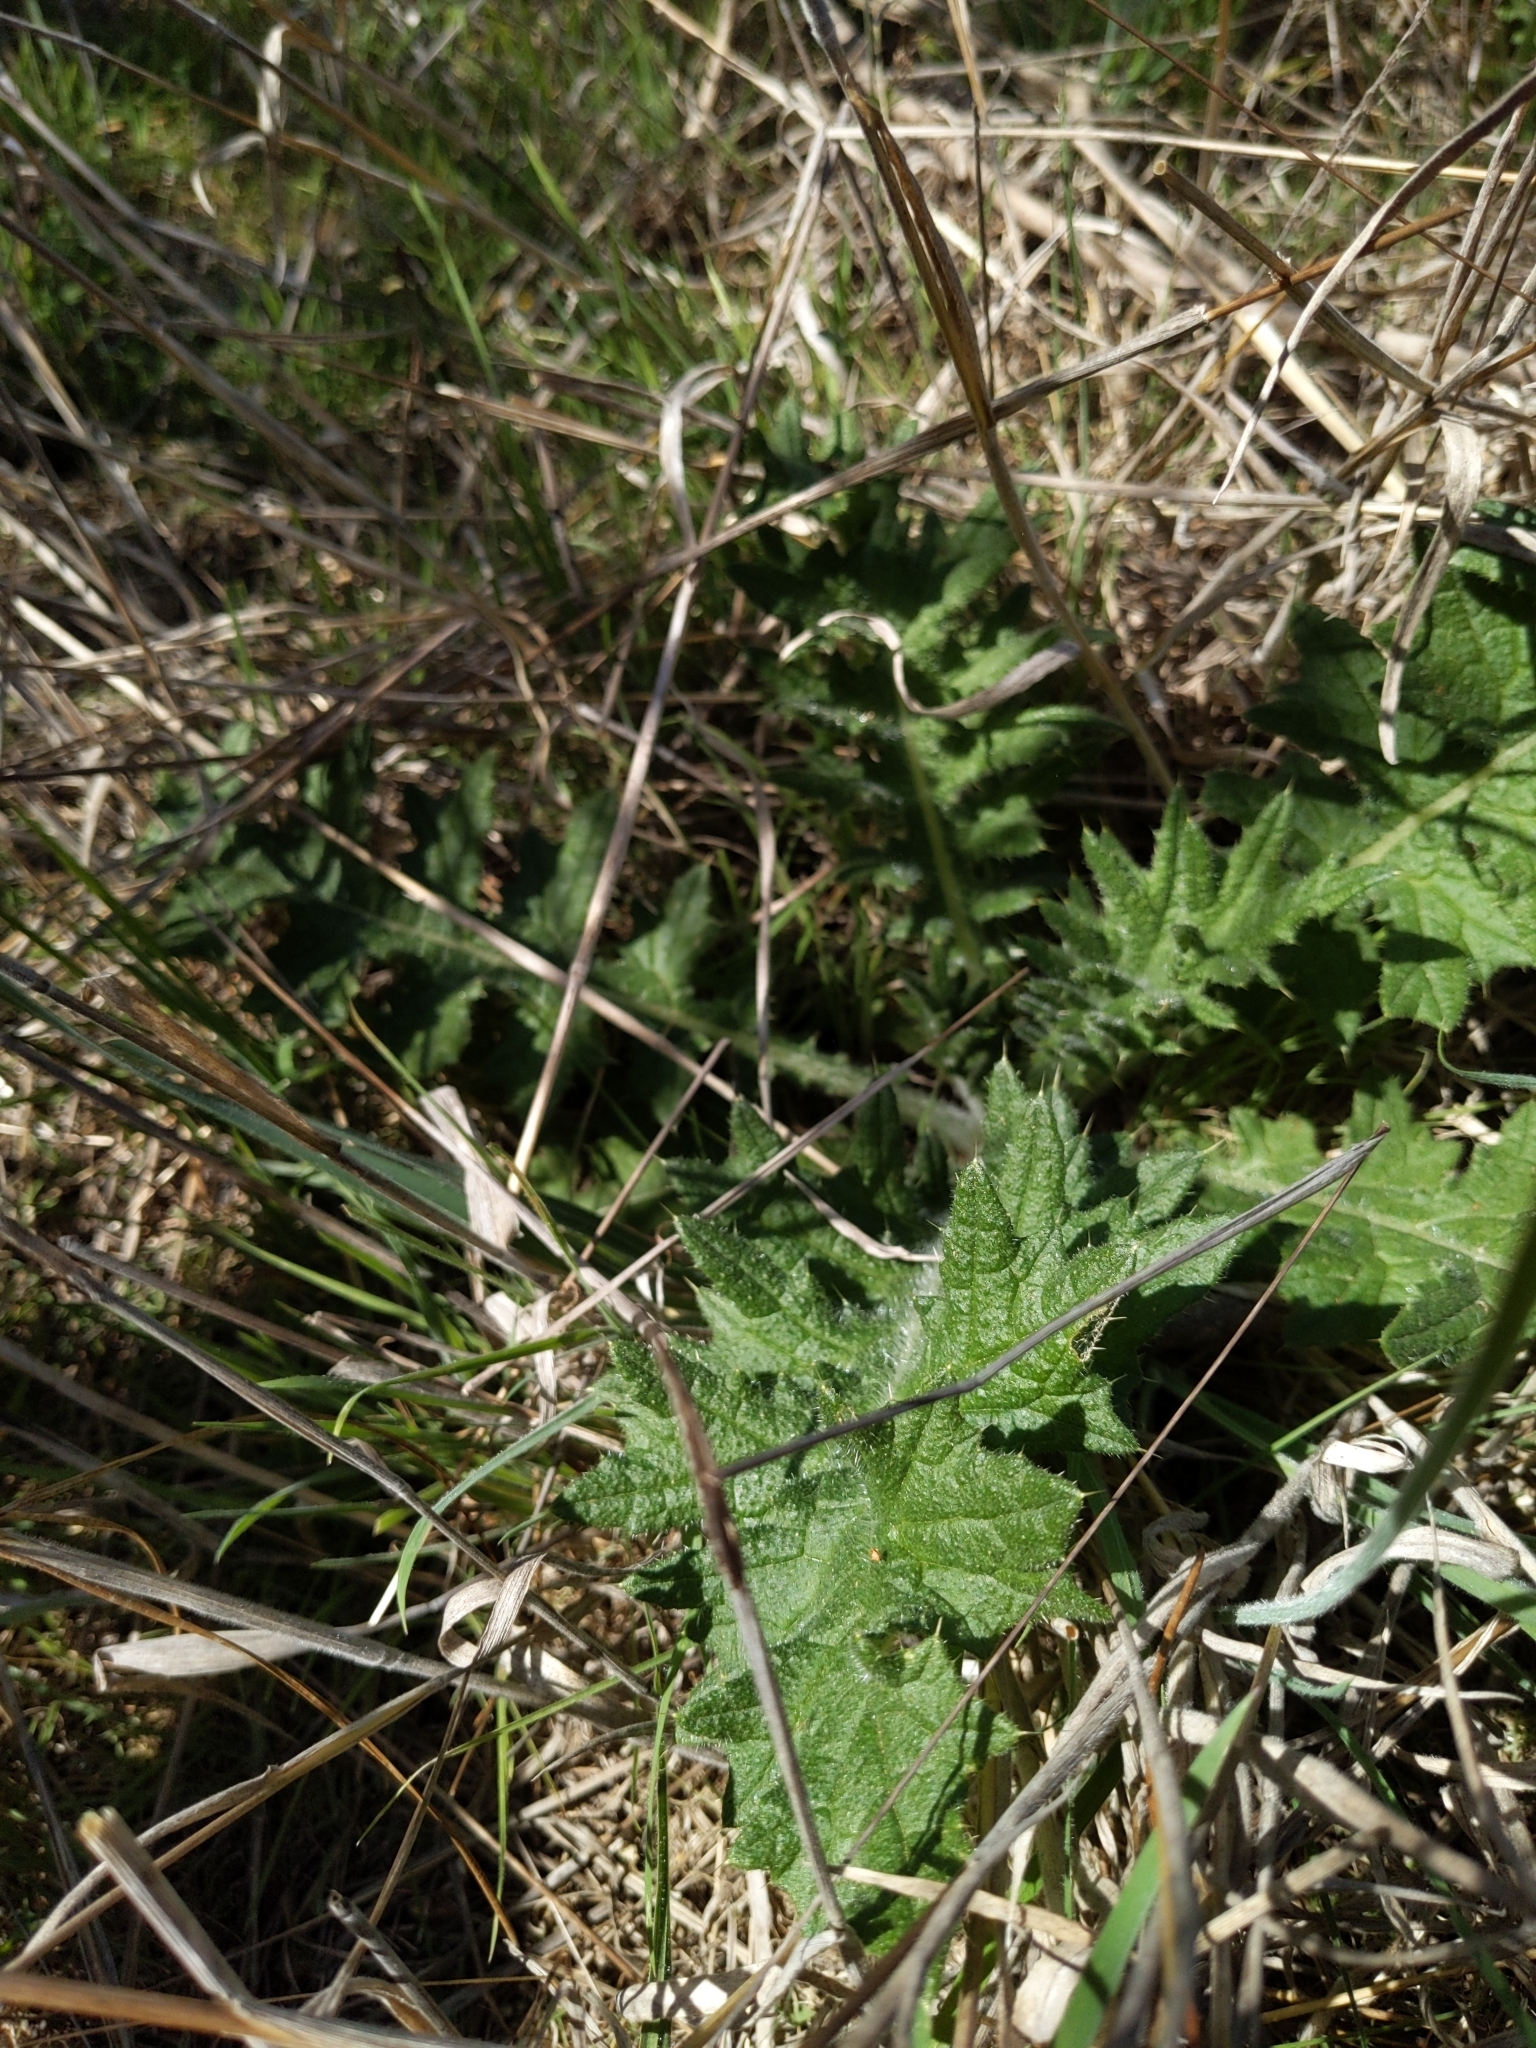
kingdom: Plantae
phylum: Tracheophyta
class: Magnoliopsida
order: Asterales
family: Asteraceae
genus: Cirsium
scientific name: Cirsium vulgare
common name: Bull thistle
